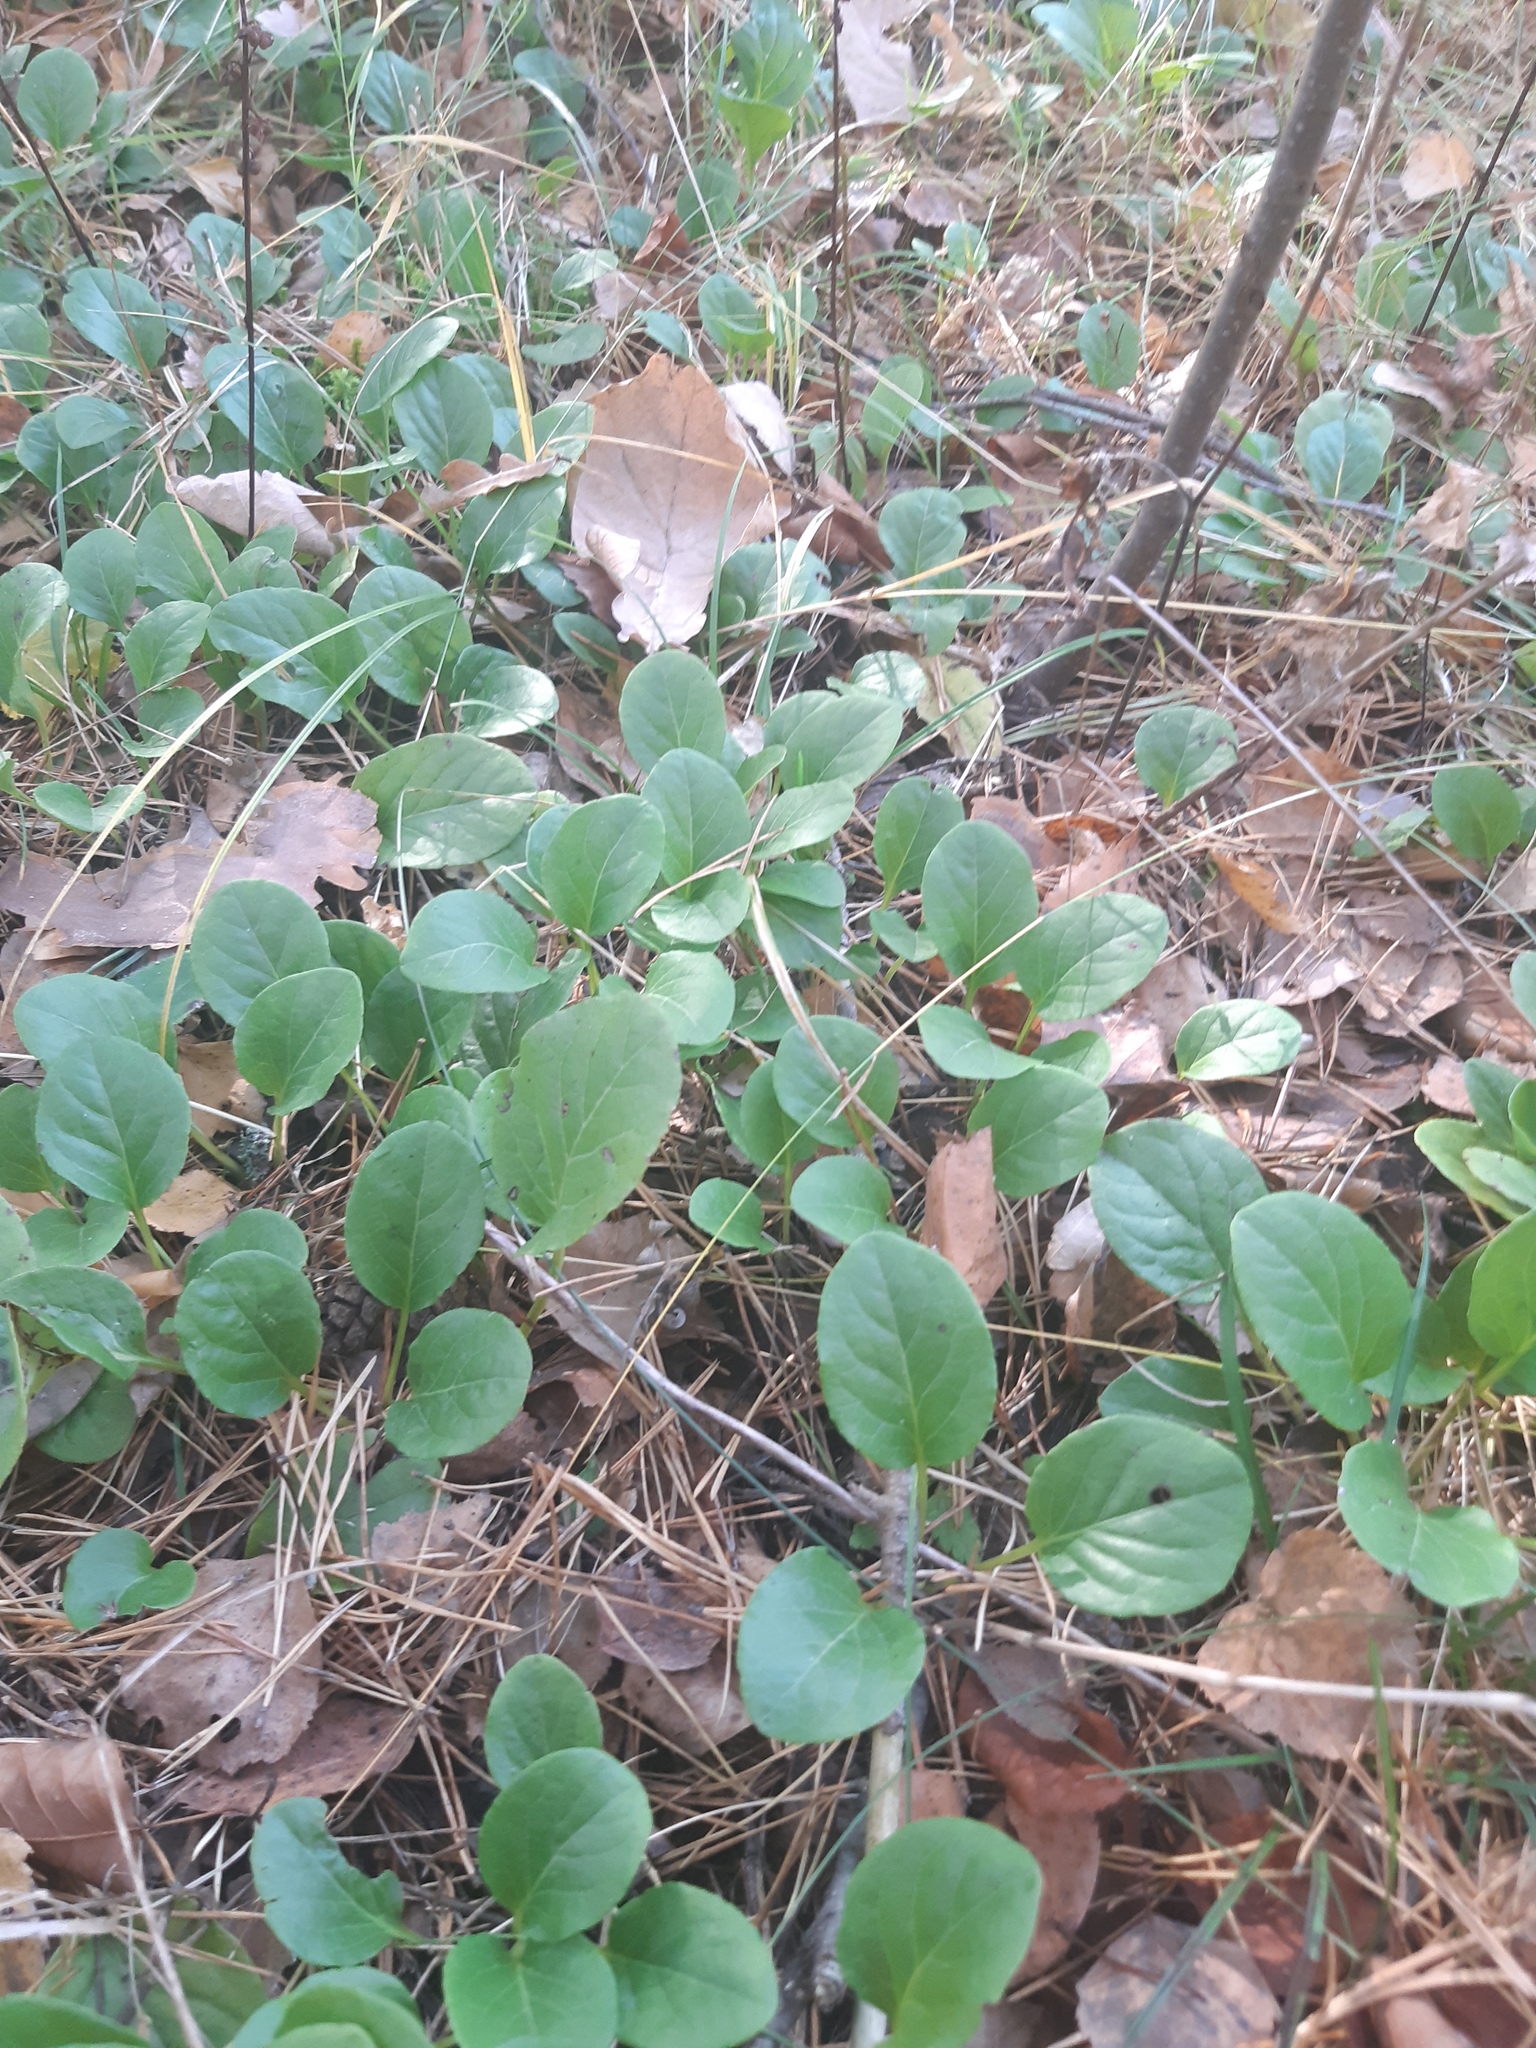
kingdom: Plantae
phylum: Tracheophyta
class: Magnoliopsida
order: Ericales
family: Ericaceae
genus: Pyrola
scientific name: Pyrola rotundifolia
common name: Round-leaved wintergreen
